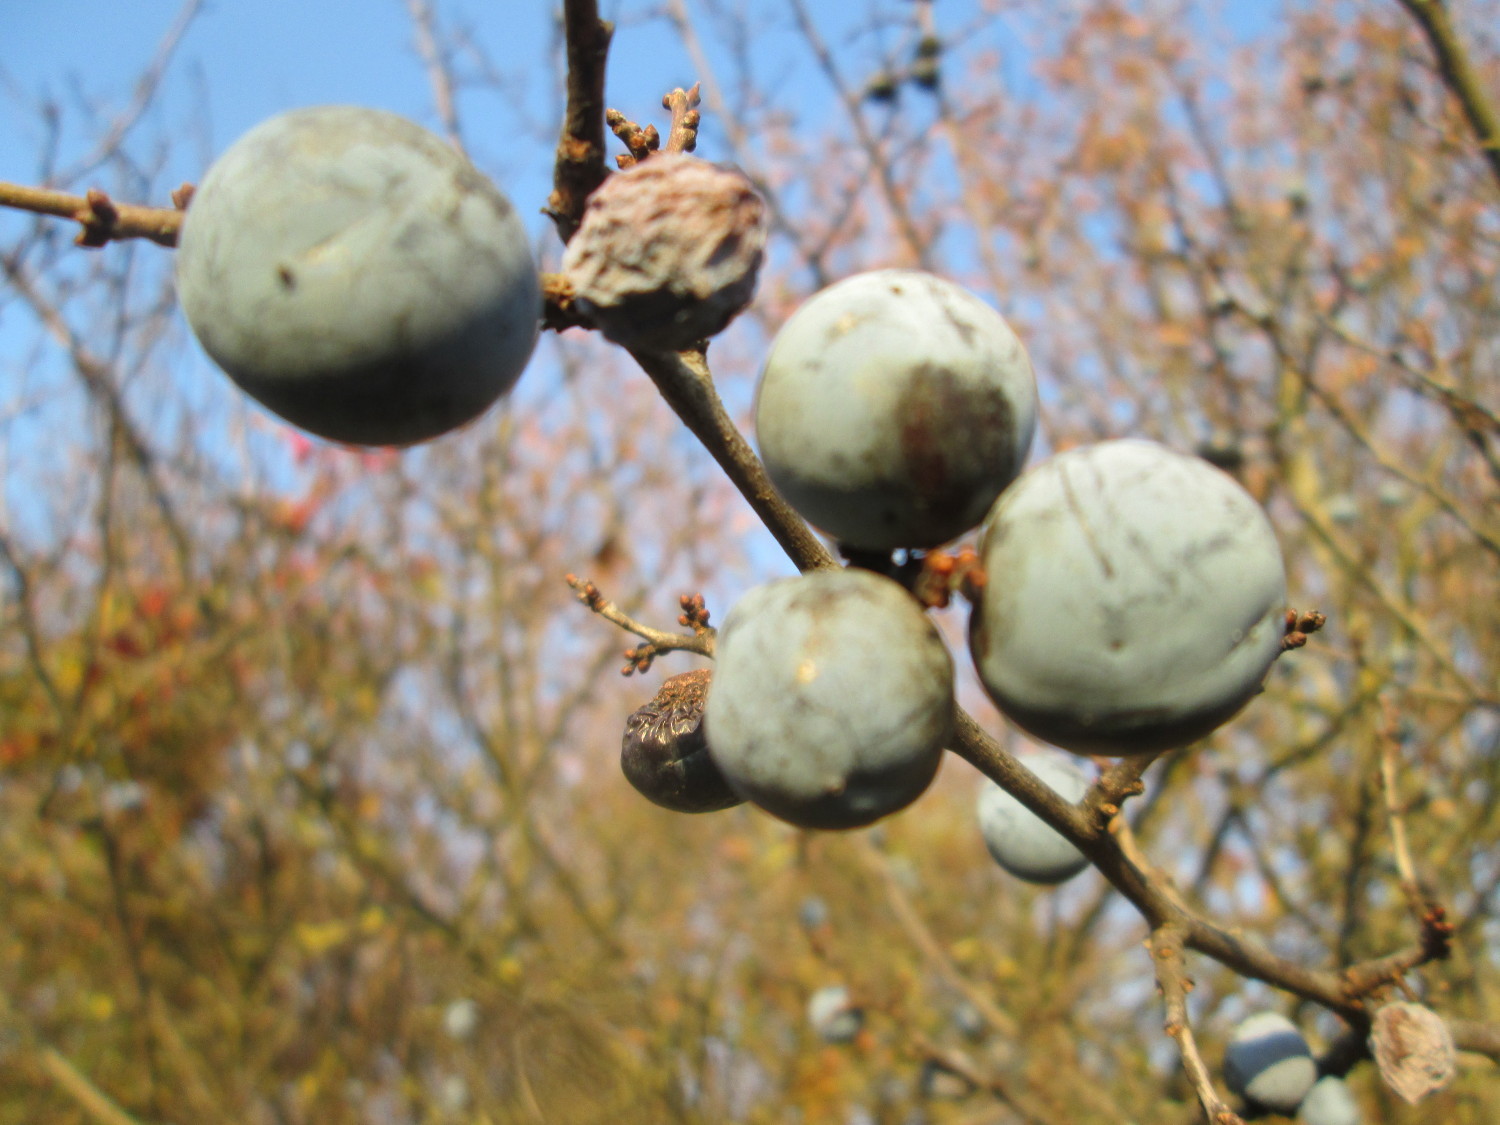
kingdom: Plantae
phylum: Tracheophyta
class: Magnoliopsida
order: Rosales
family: Rosaceae
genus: Prunus
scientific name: Prunus spinosa
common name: Blackthorn
